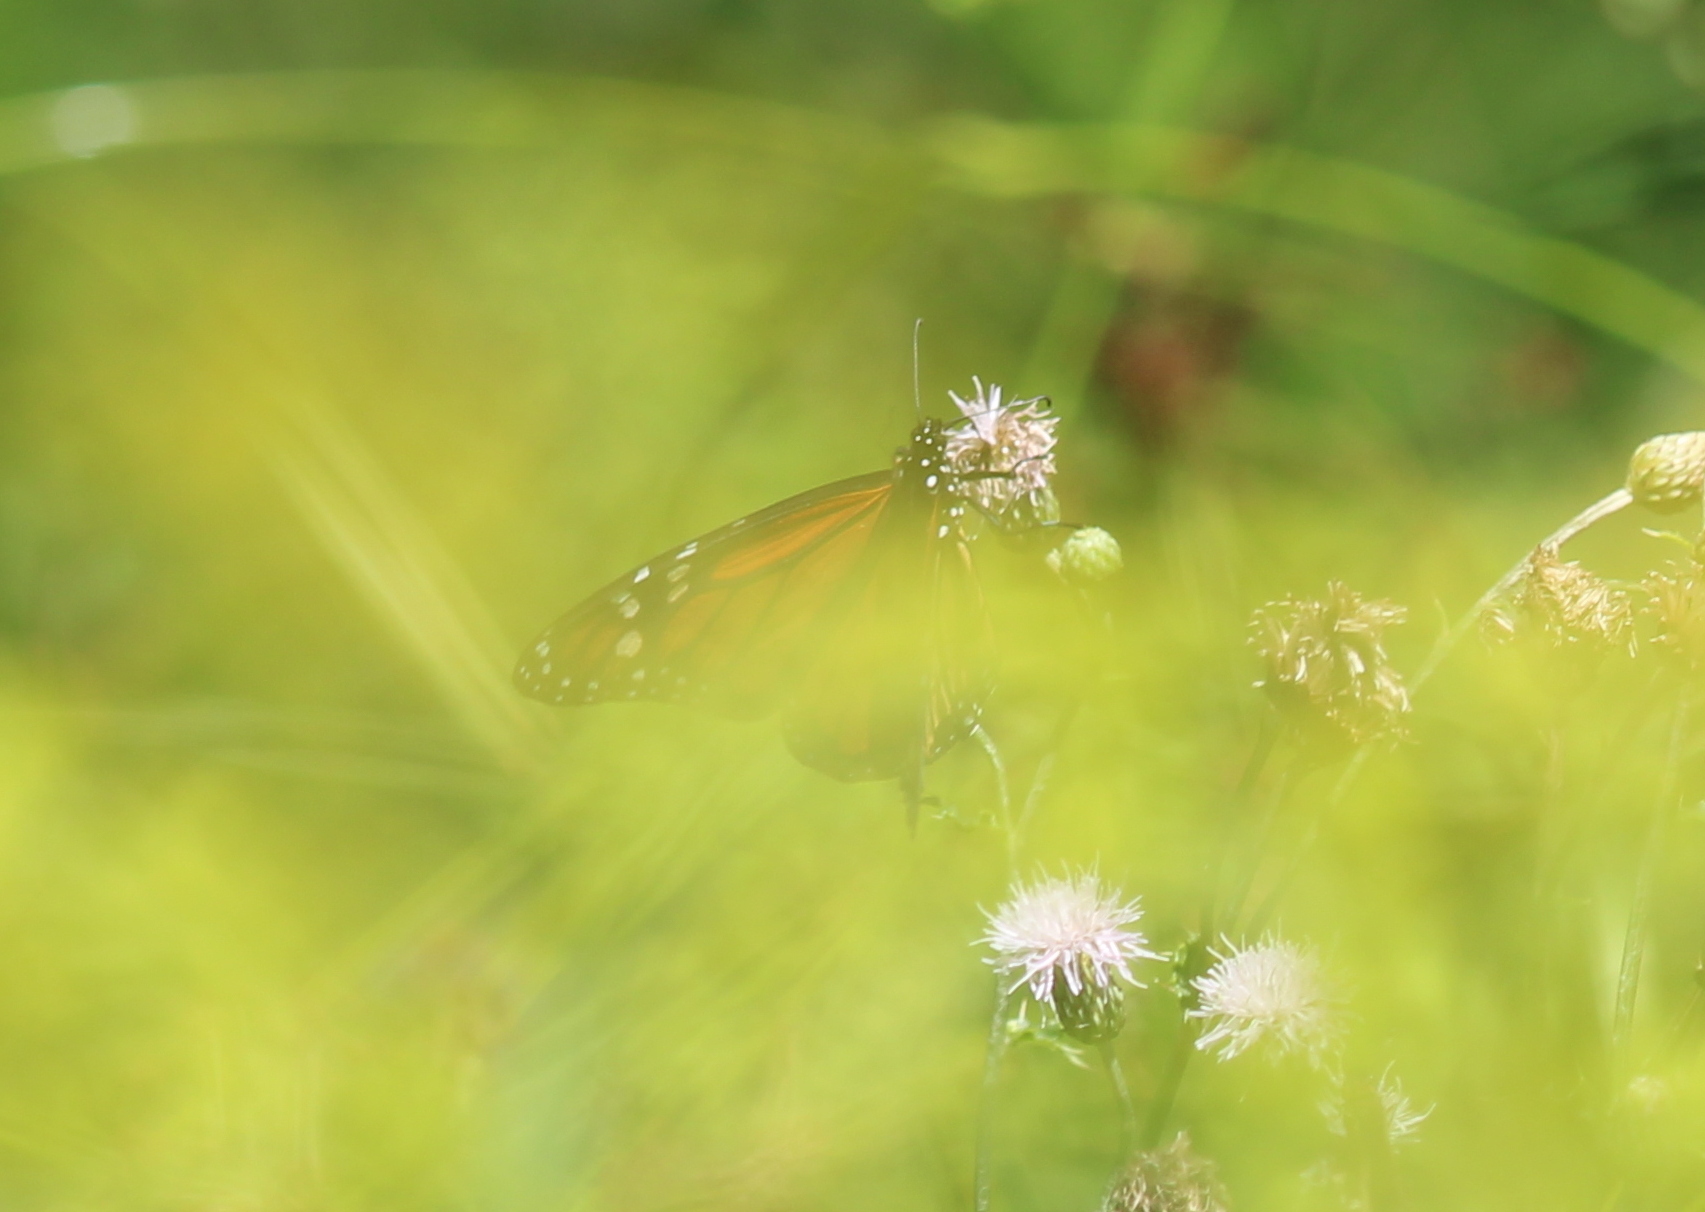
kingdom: Animalia
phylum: Arthropoda
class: Insecta
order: Lepidoptera
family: Nymphalidae
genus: Danaus
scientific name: Danaus plexippus
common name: Monarch
